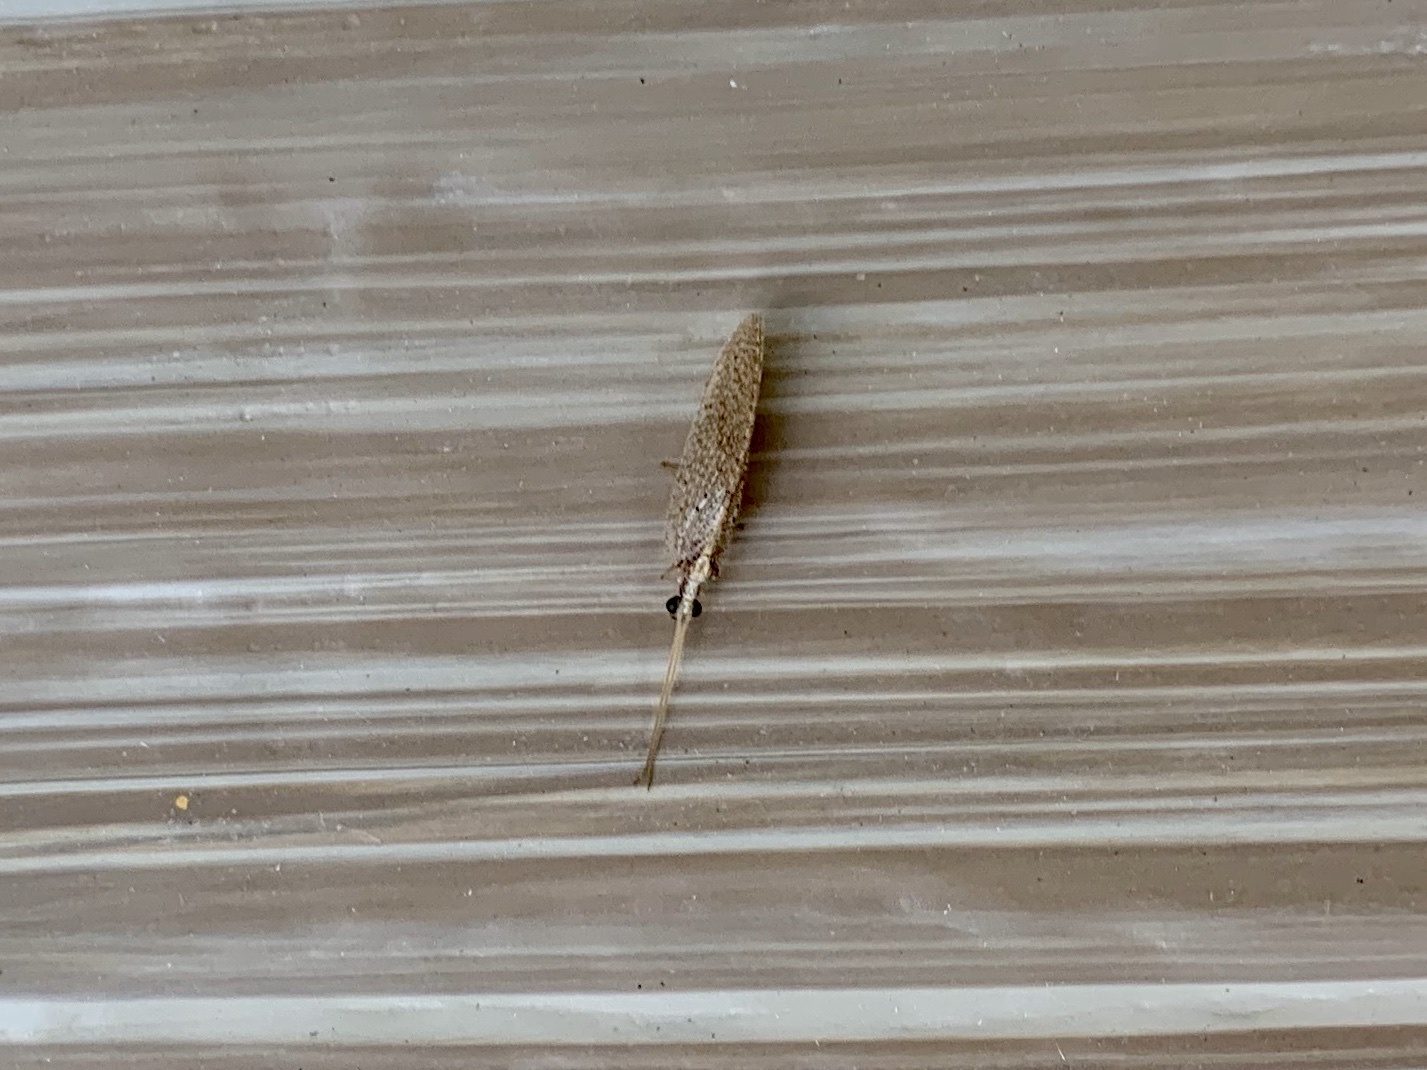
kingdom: Animalia
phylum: Arthropoda
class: Insecta
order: Neuroptera
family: Hemerobiidae
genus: Hemerobius
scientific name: Hemerobius
